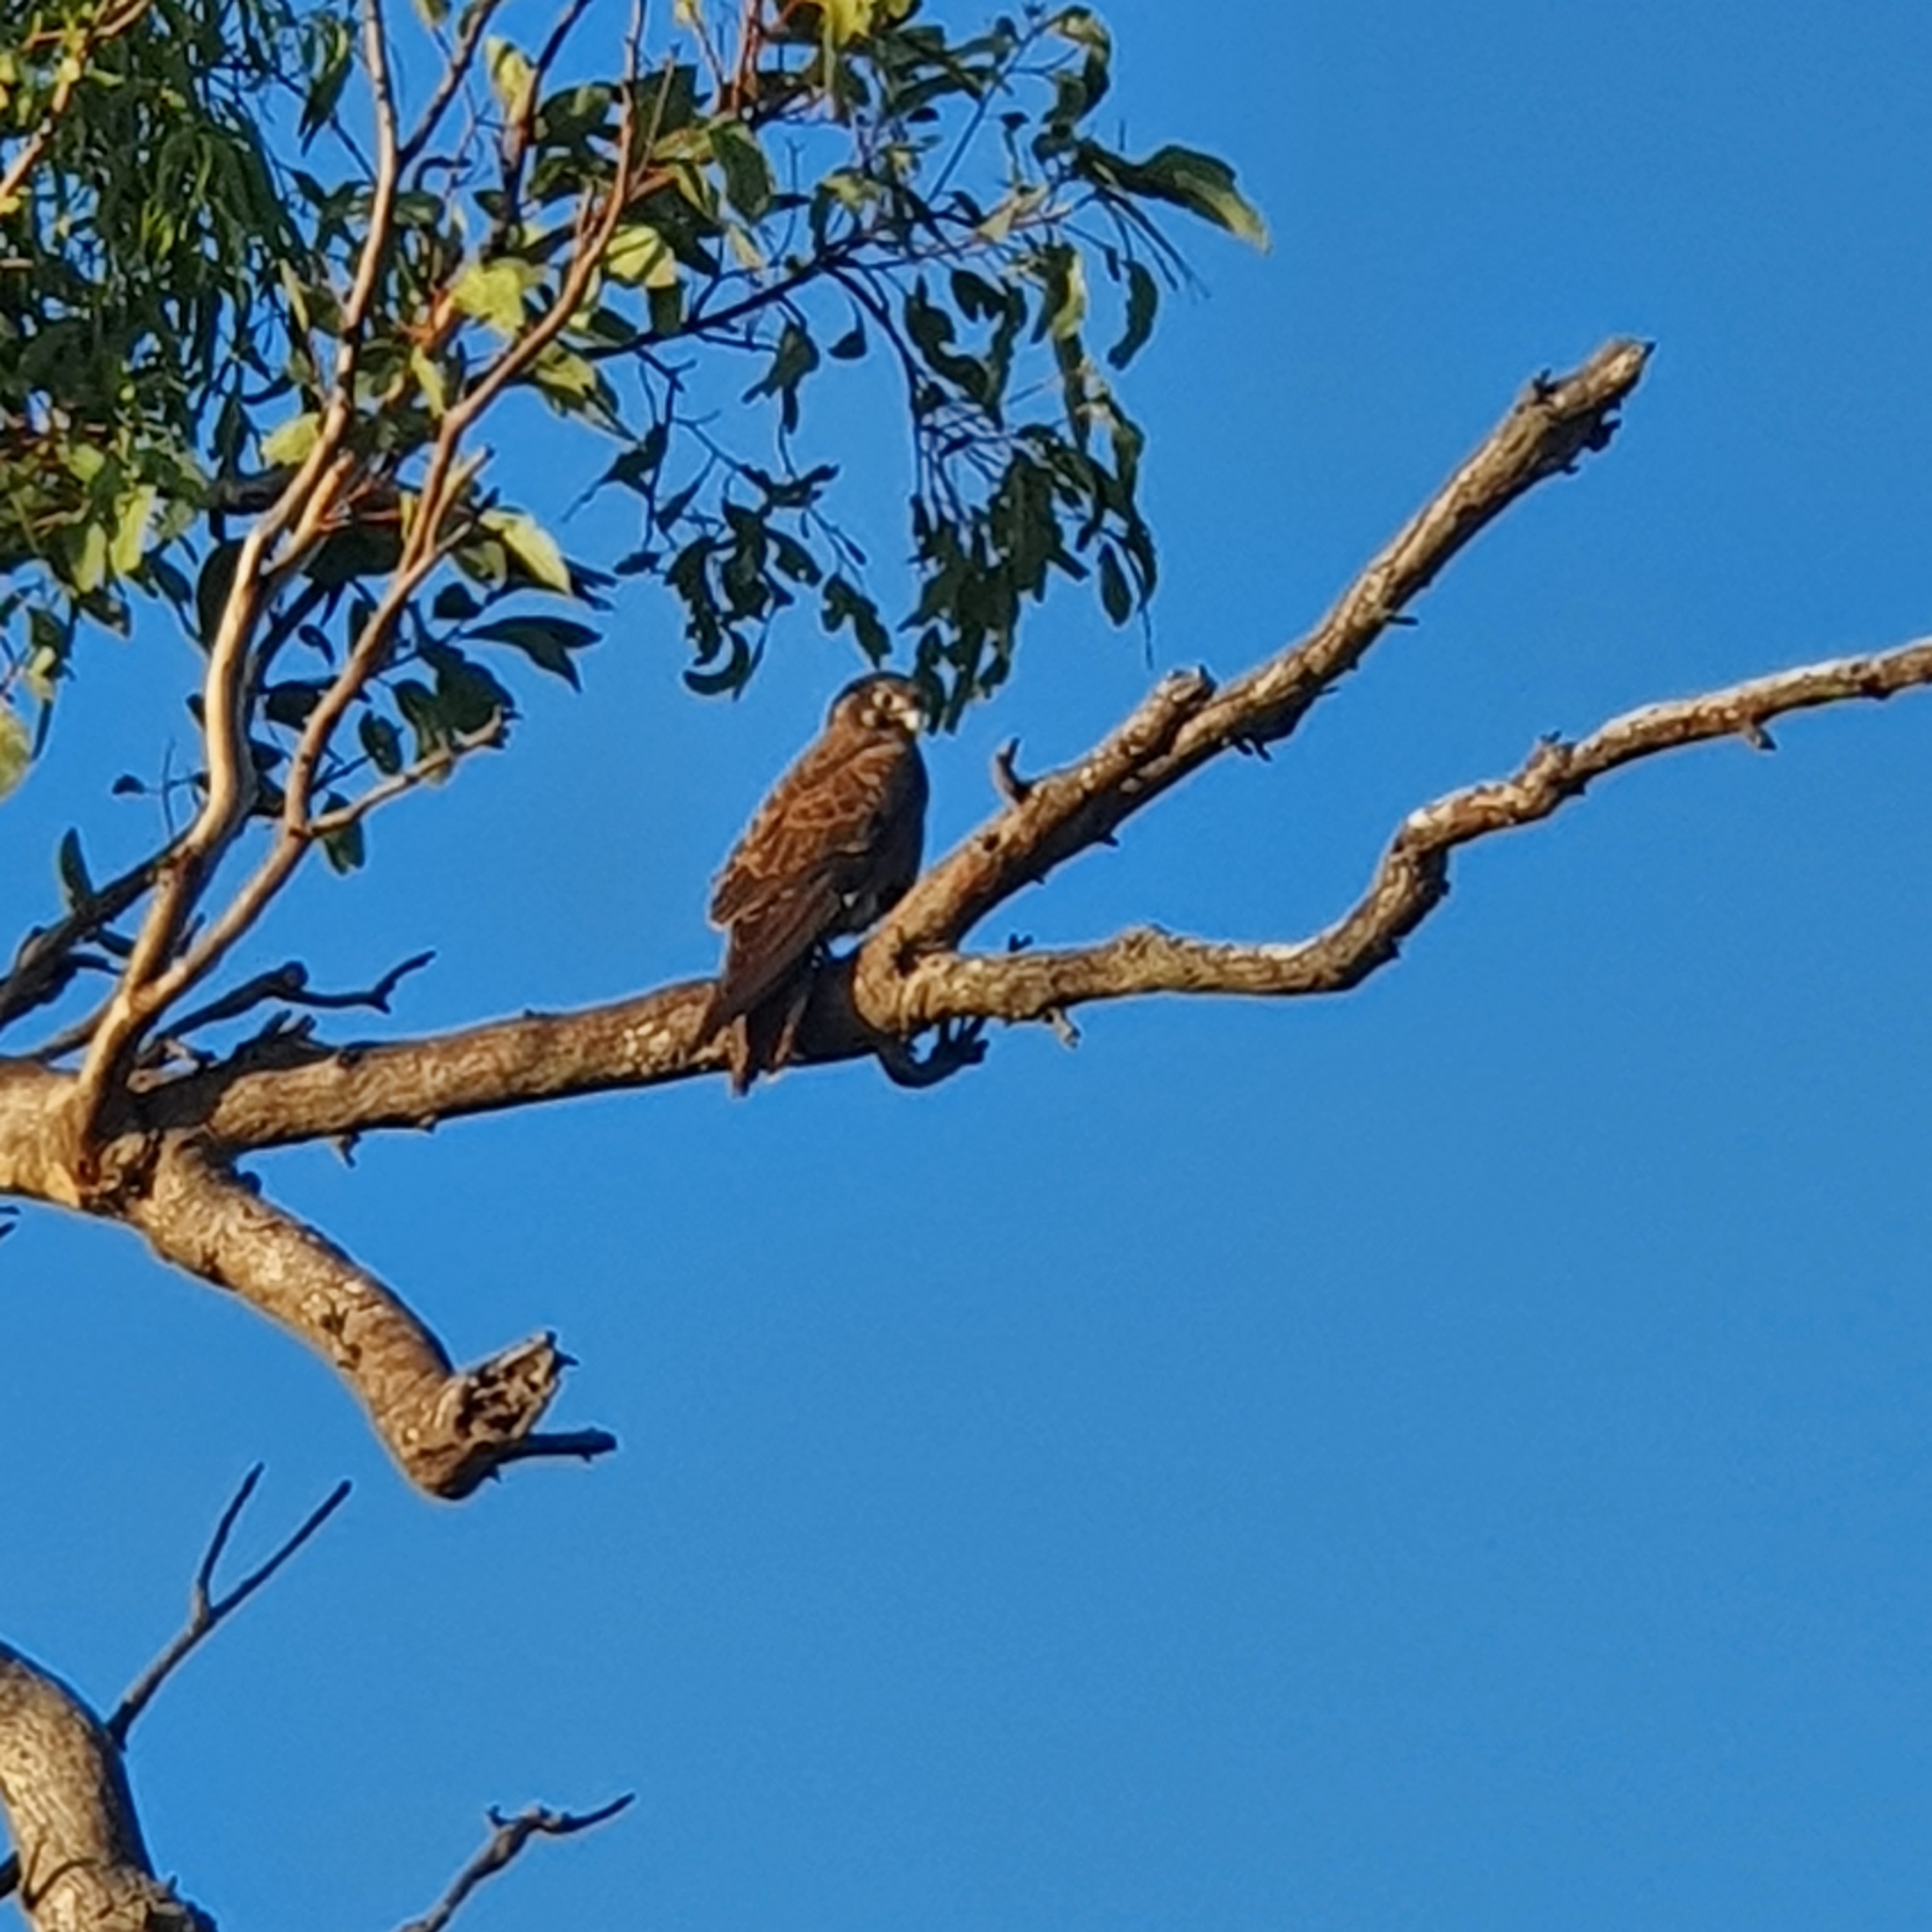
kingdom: Animalia
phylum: Chordata
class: Aves
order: Falconiformes
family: Falconidae
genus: Falco
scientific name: Falco berigora
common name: Brown falcon
